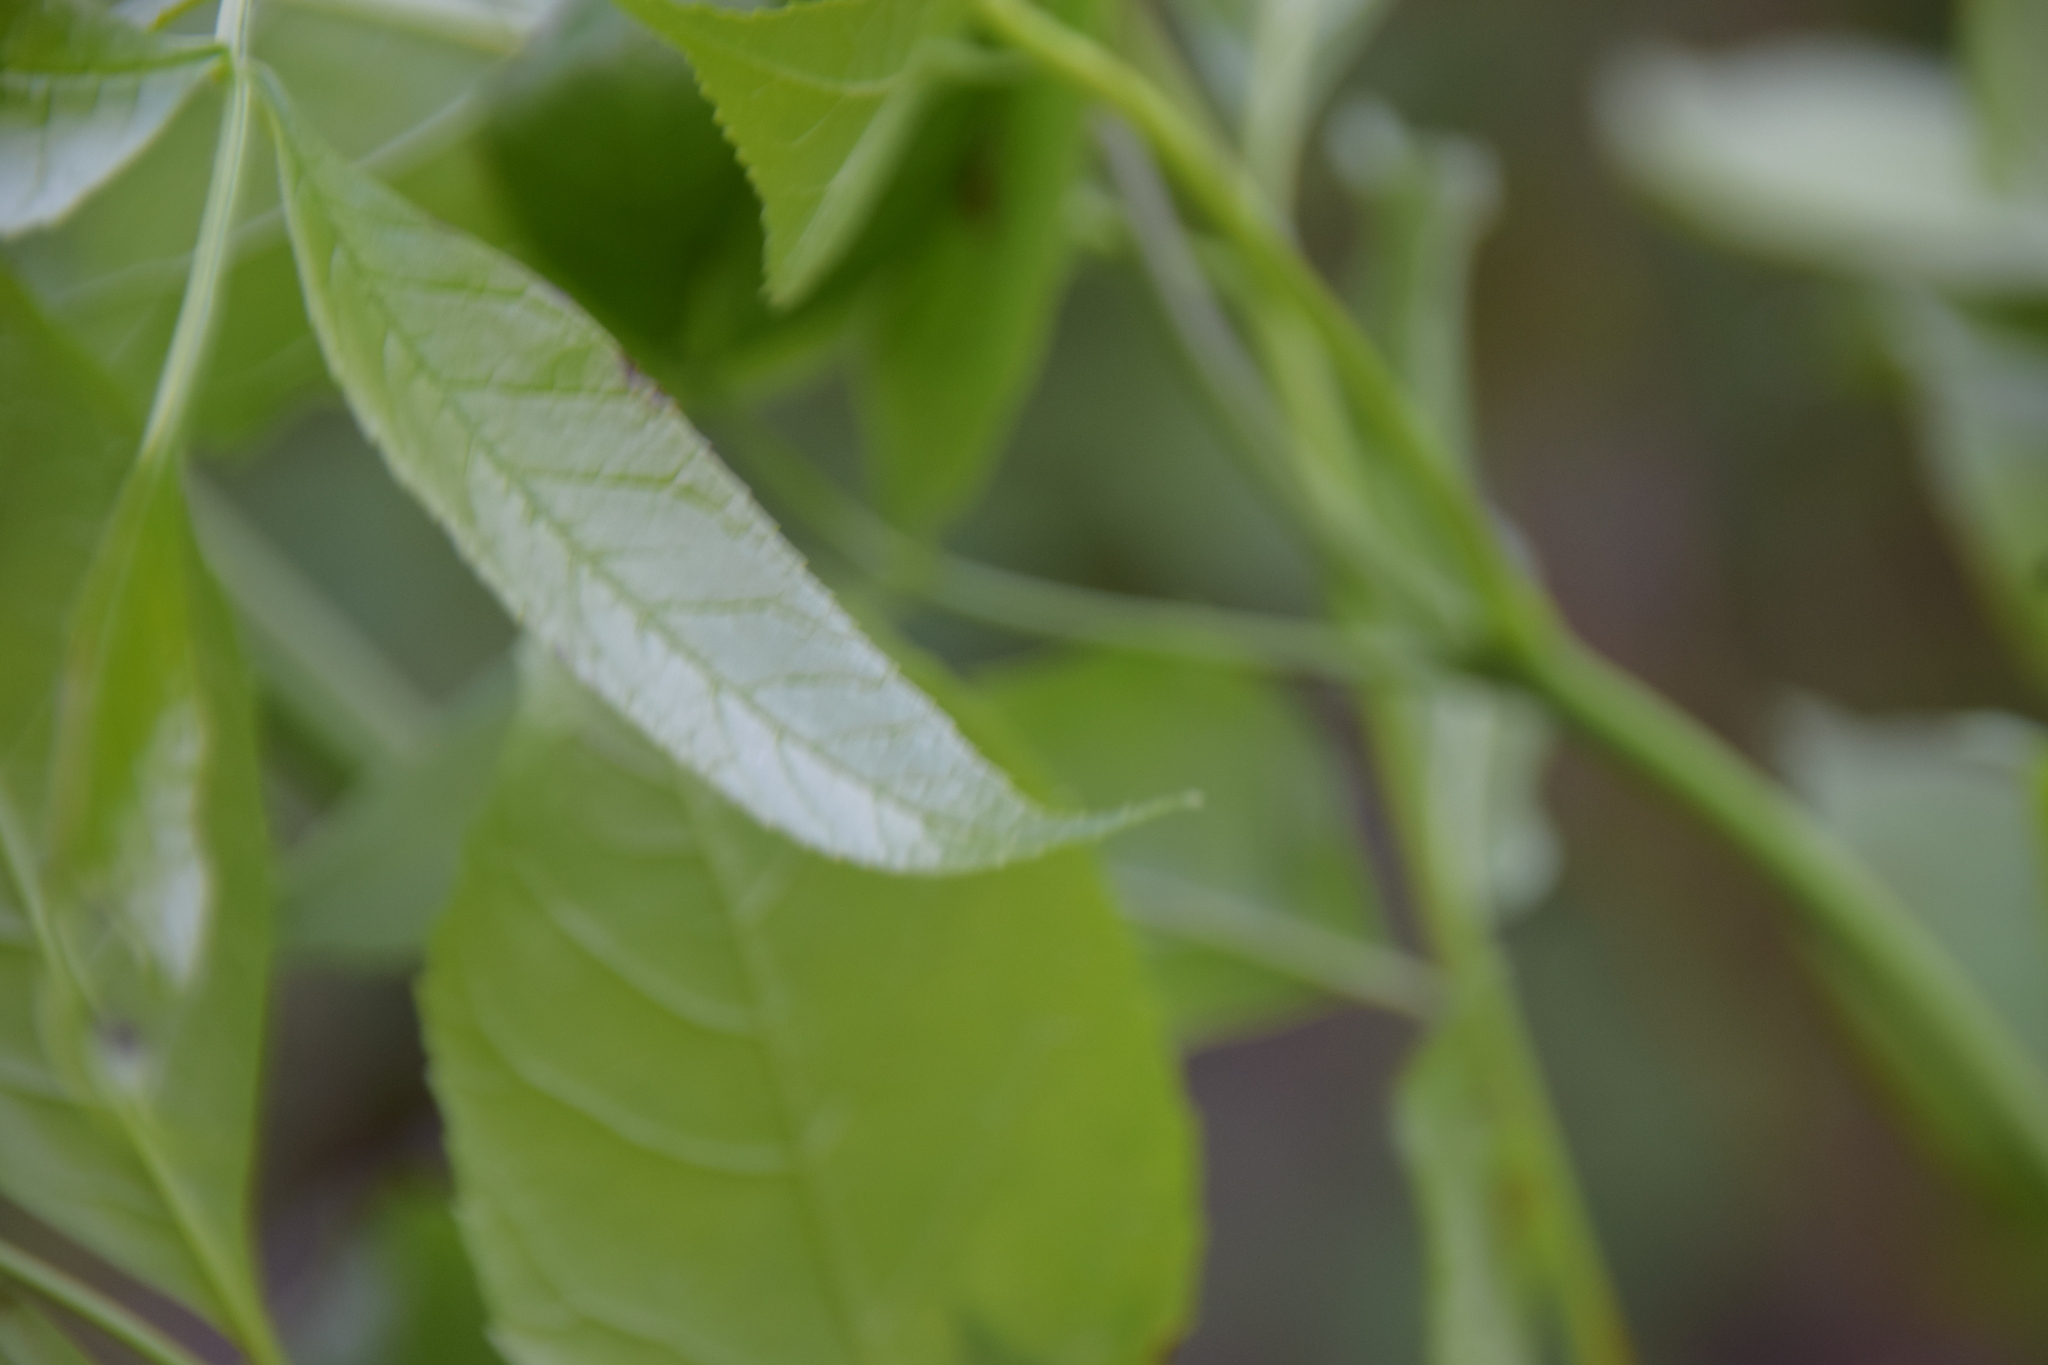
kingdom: Plantae
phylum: Tracheophyta
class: Magnoliopsida
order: Lamiales
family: Oleaceae
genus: Fraxinus
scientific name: Fraxinus pennsylvanica
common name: Green ash
